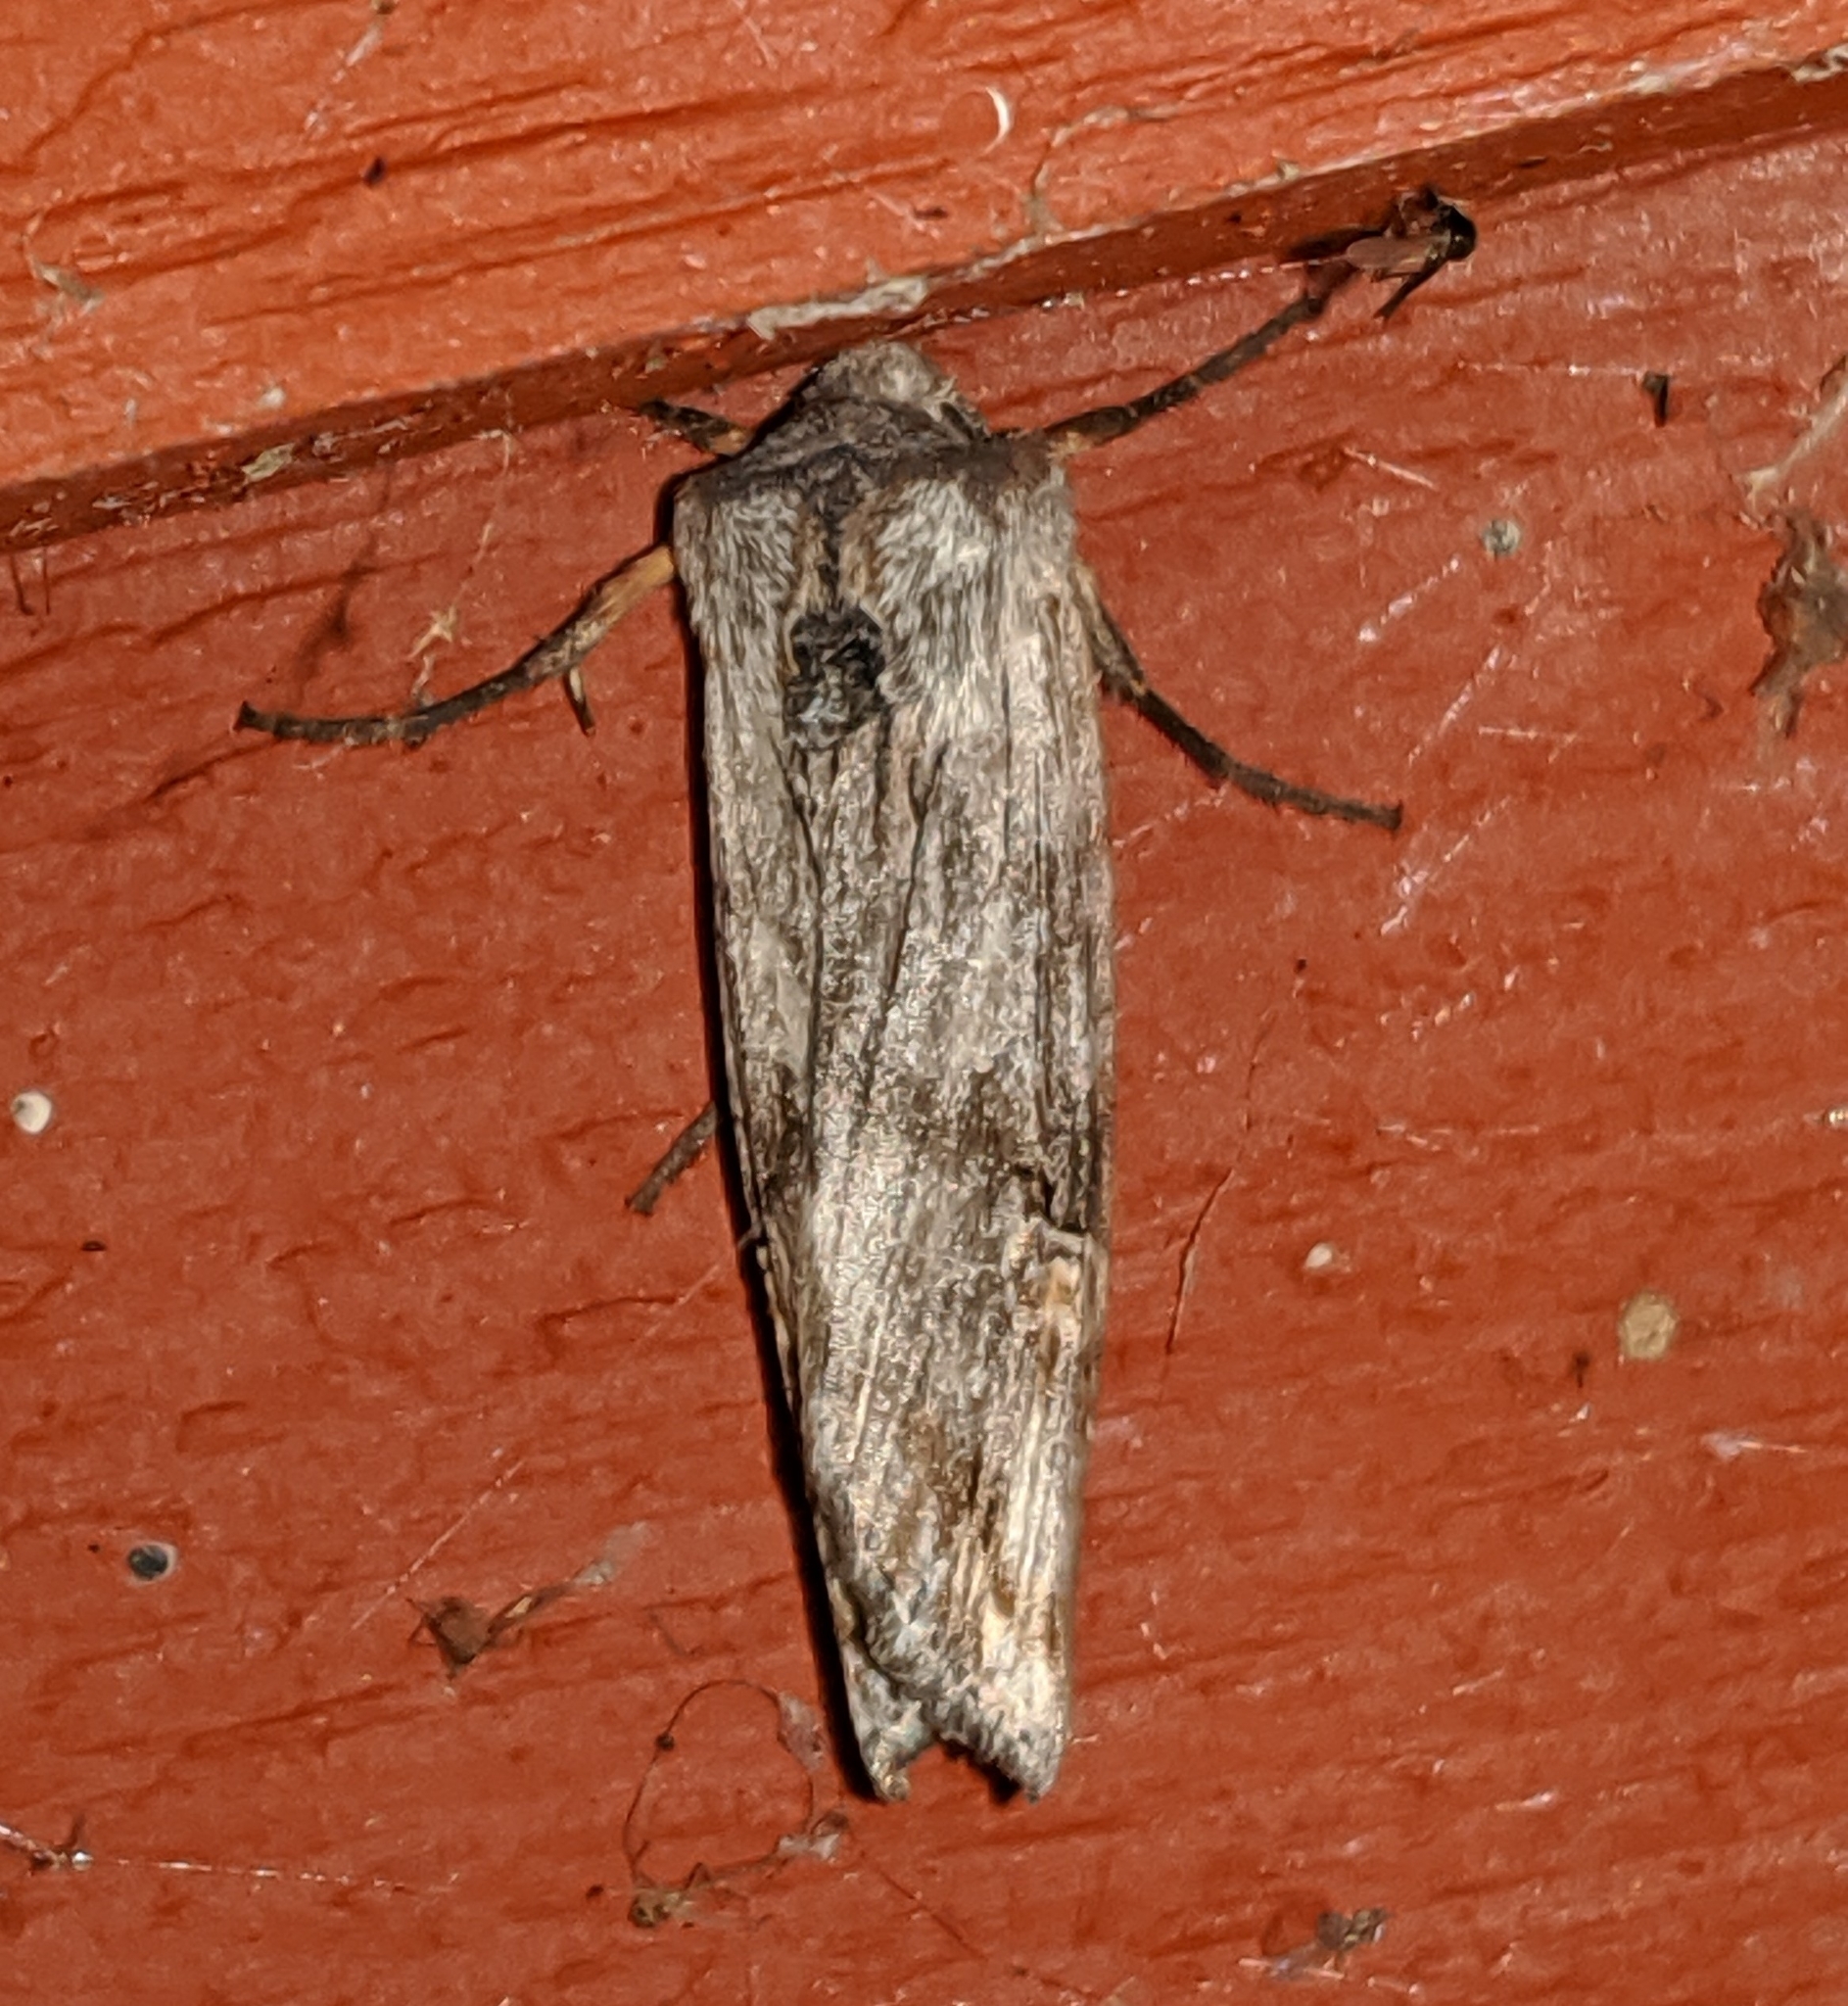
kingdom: Animalia
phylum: Arthropoda
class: Insecta
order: Lepidoptera
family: Noctuidae
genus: Xylena
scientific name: Xylena germana
